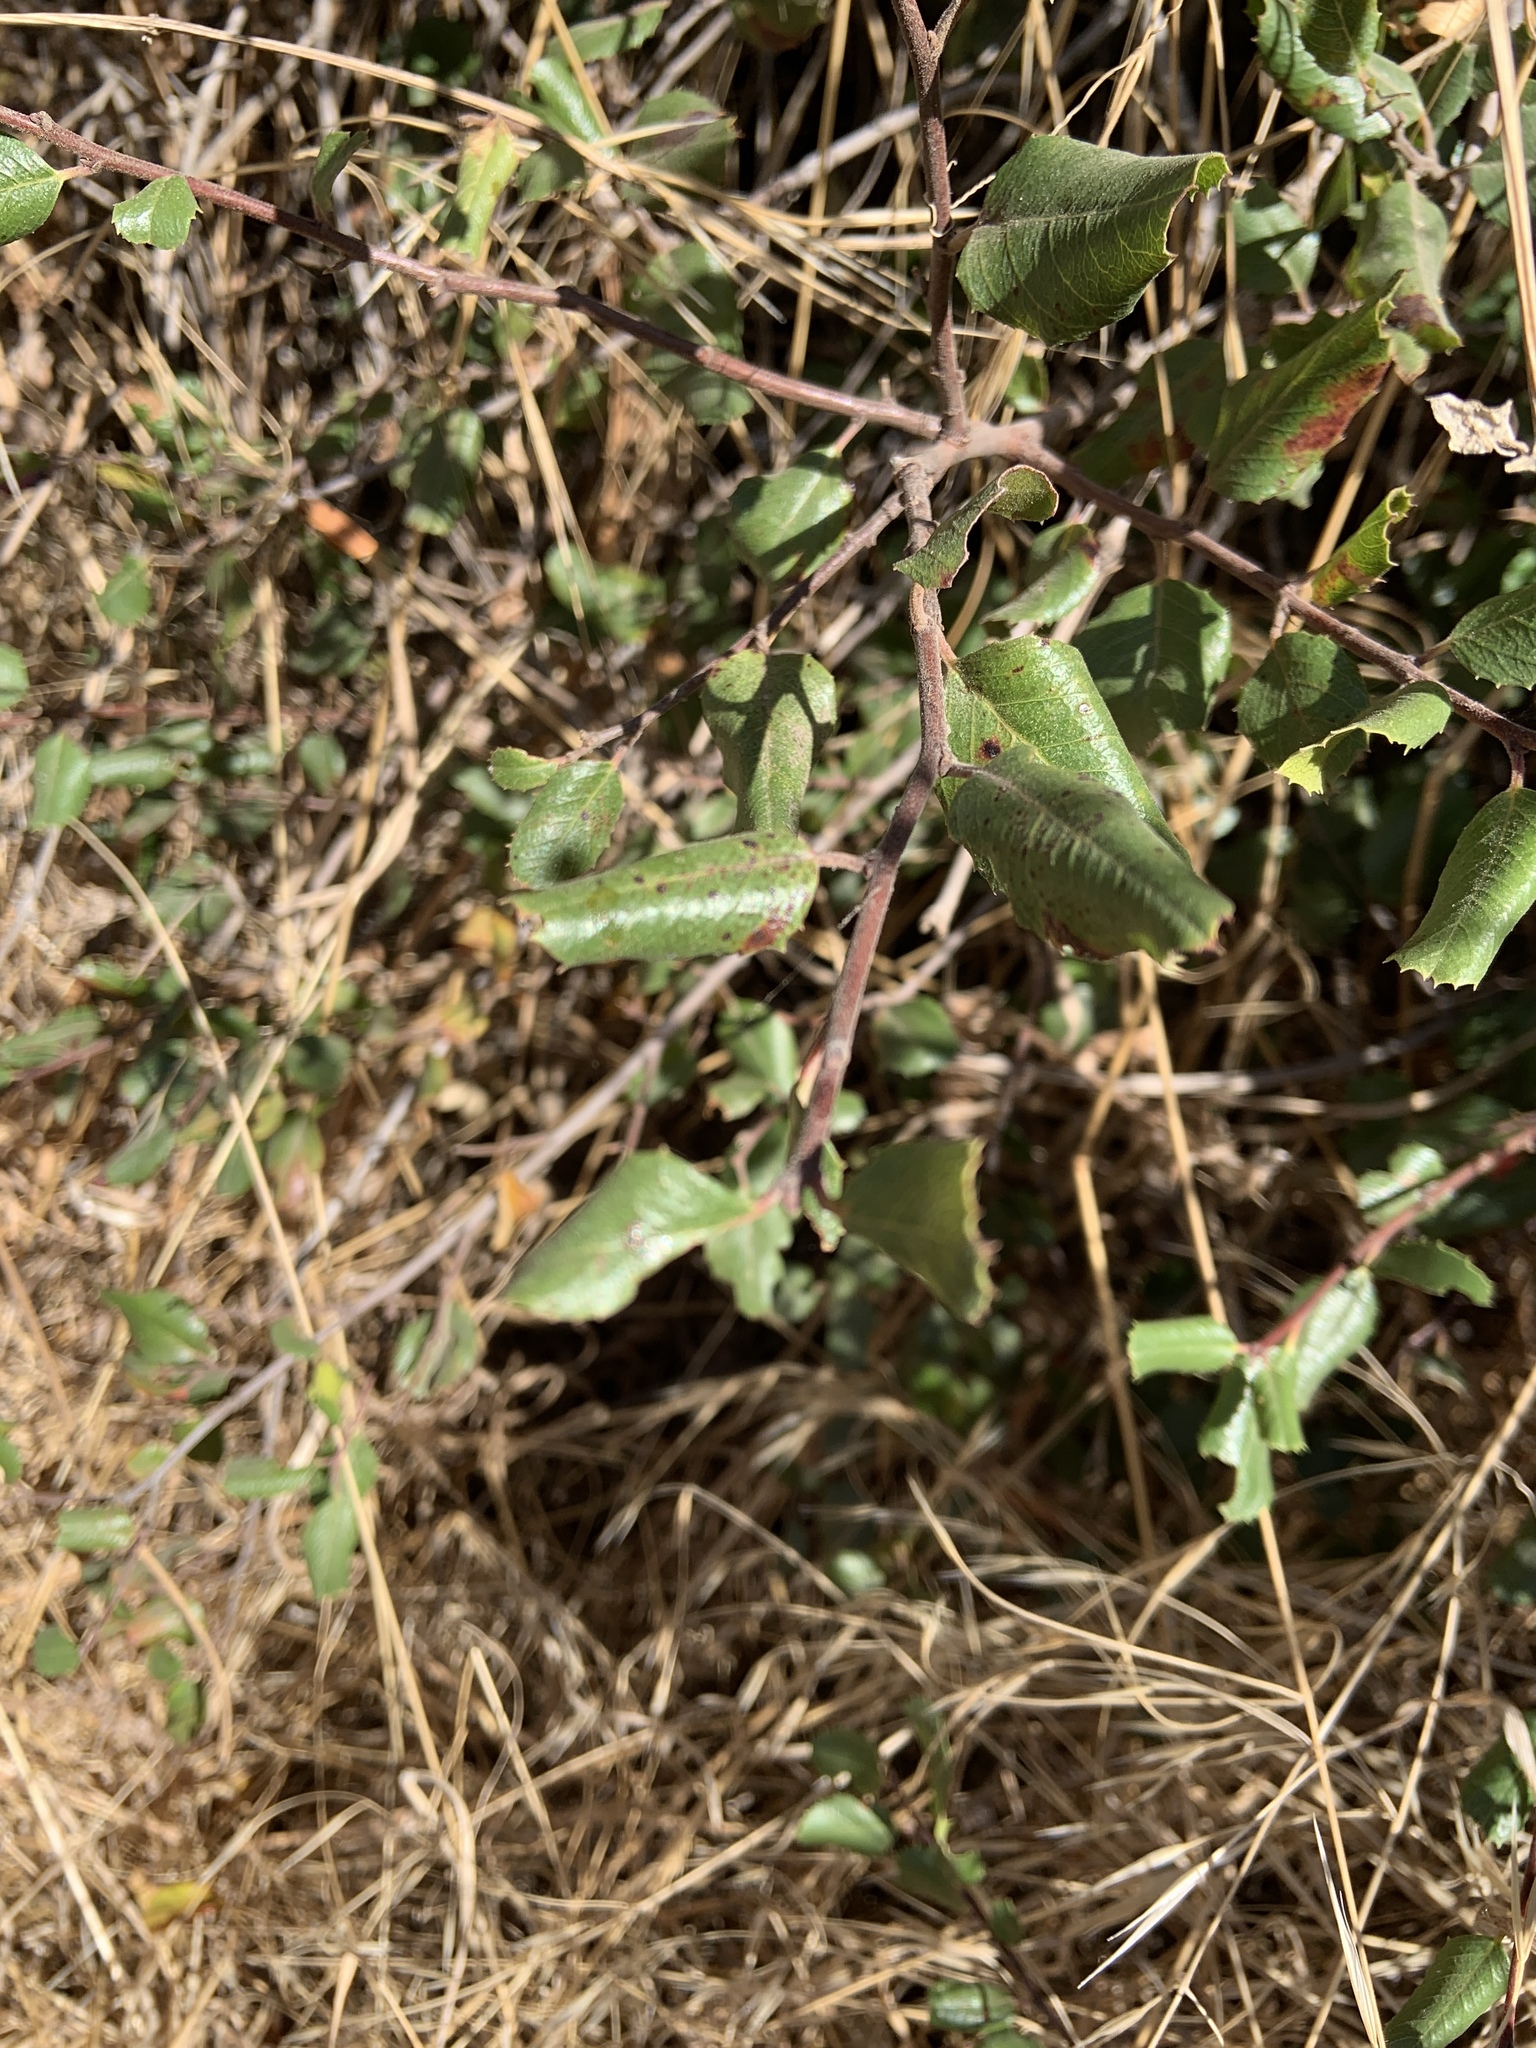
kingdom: Plantae
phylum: Tracheophyta
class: Magnoliopsida
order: Rosales
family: Rhamnaceae
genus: Endotropis
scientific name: Endotropis crocea
